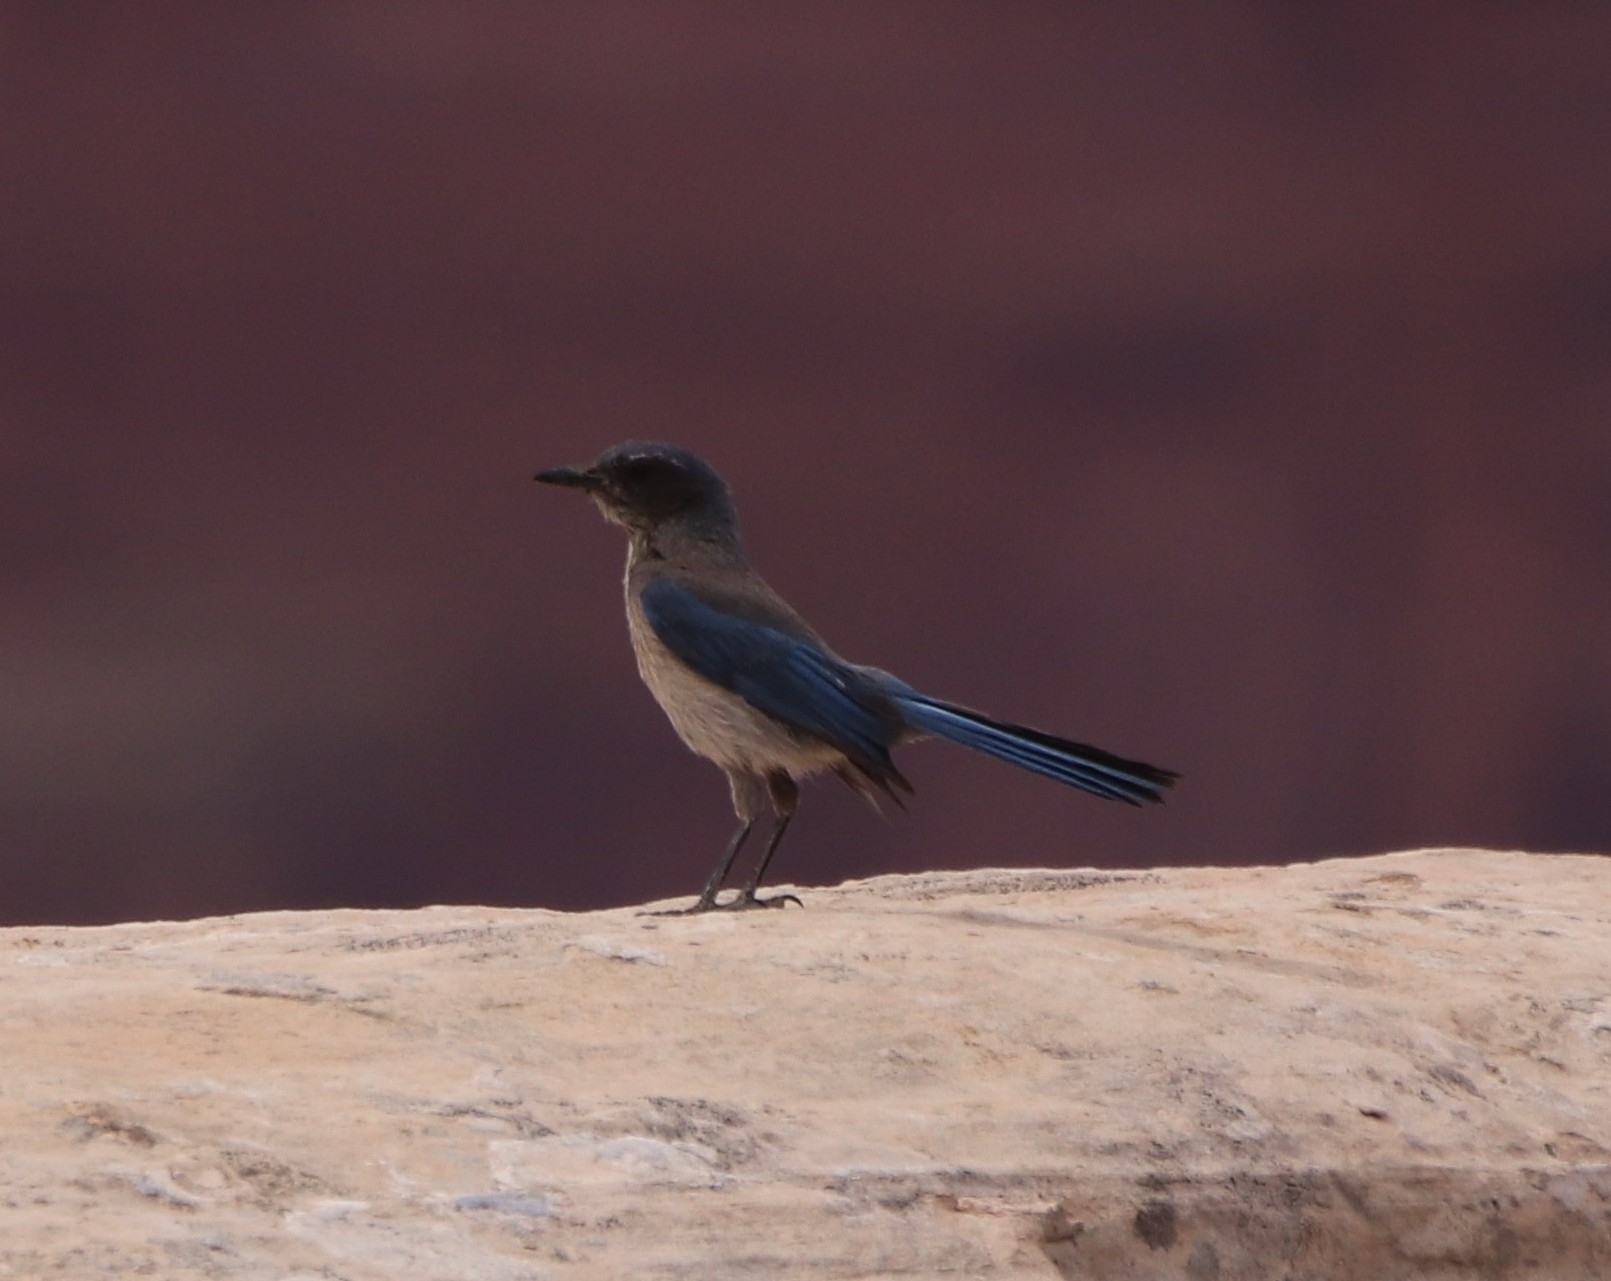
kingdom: Animalia
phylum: Chordata
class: Aves
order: Passeriformes
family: Corvidae
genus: Aphelocoma
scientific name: Aphelocoma woodhouseii
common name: Woodhouse's scrub-jay
